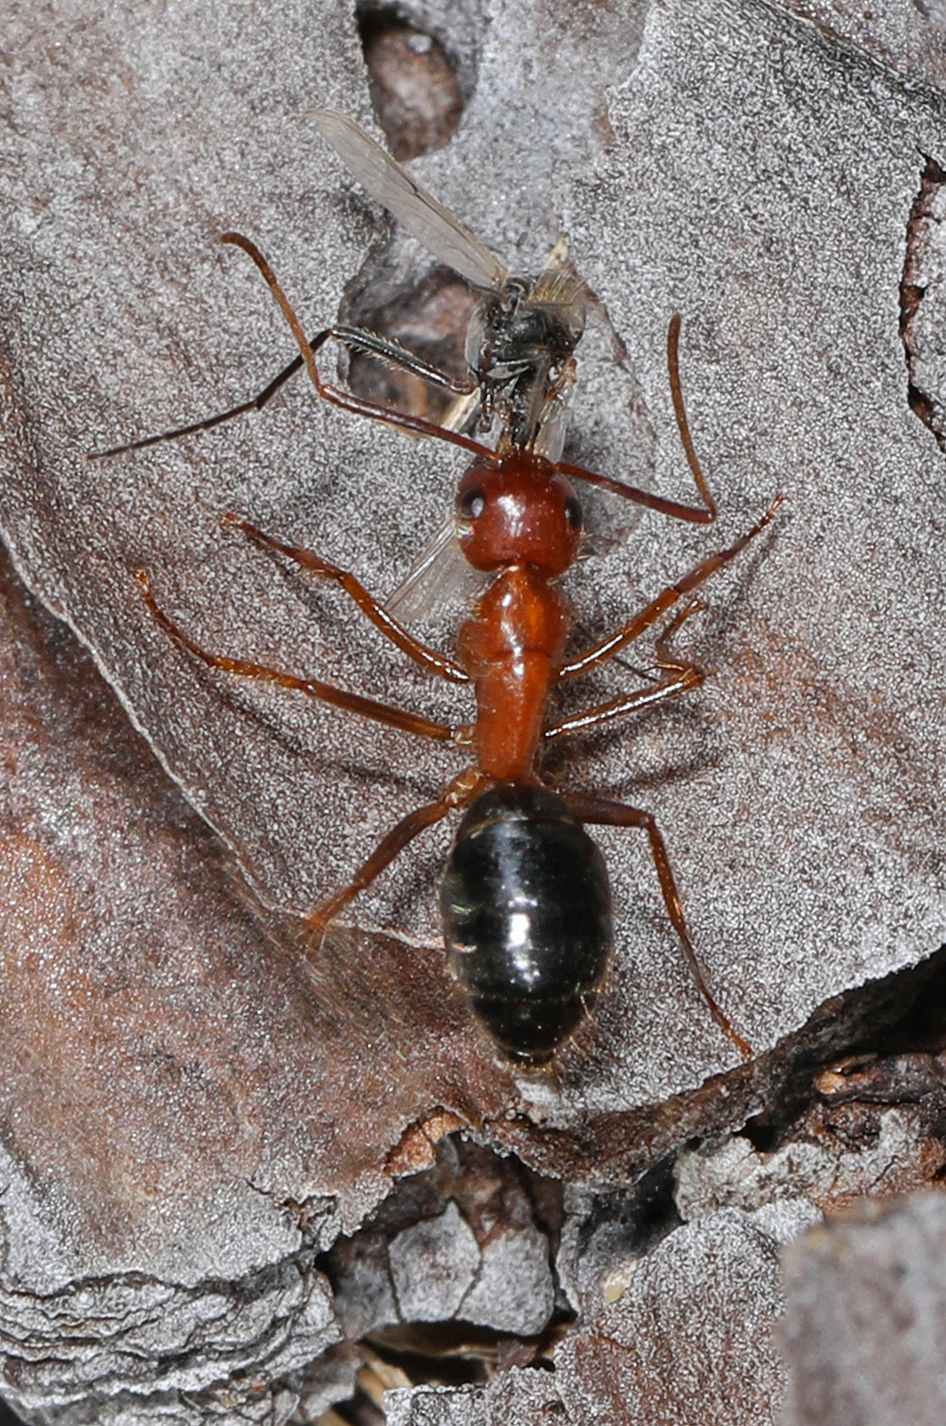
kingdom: Animalia
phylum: Arthropoda
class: Insecta
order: Hymenoptera
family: Formicidae
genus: Camponotus
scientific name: Camponotus floridanus
